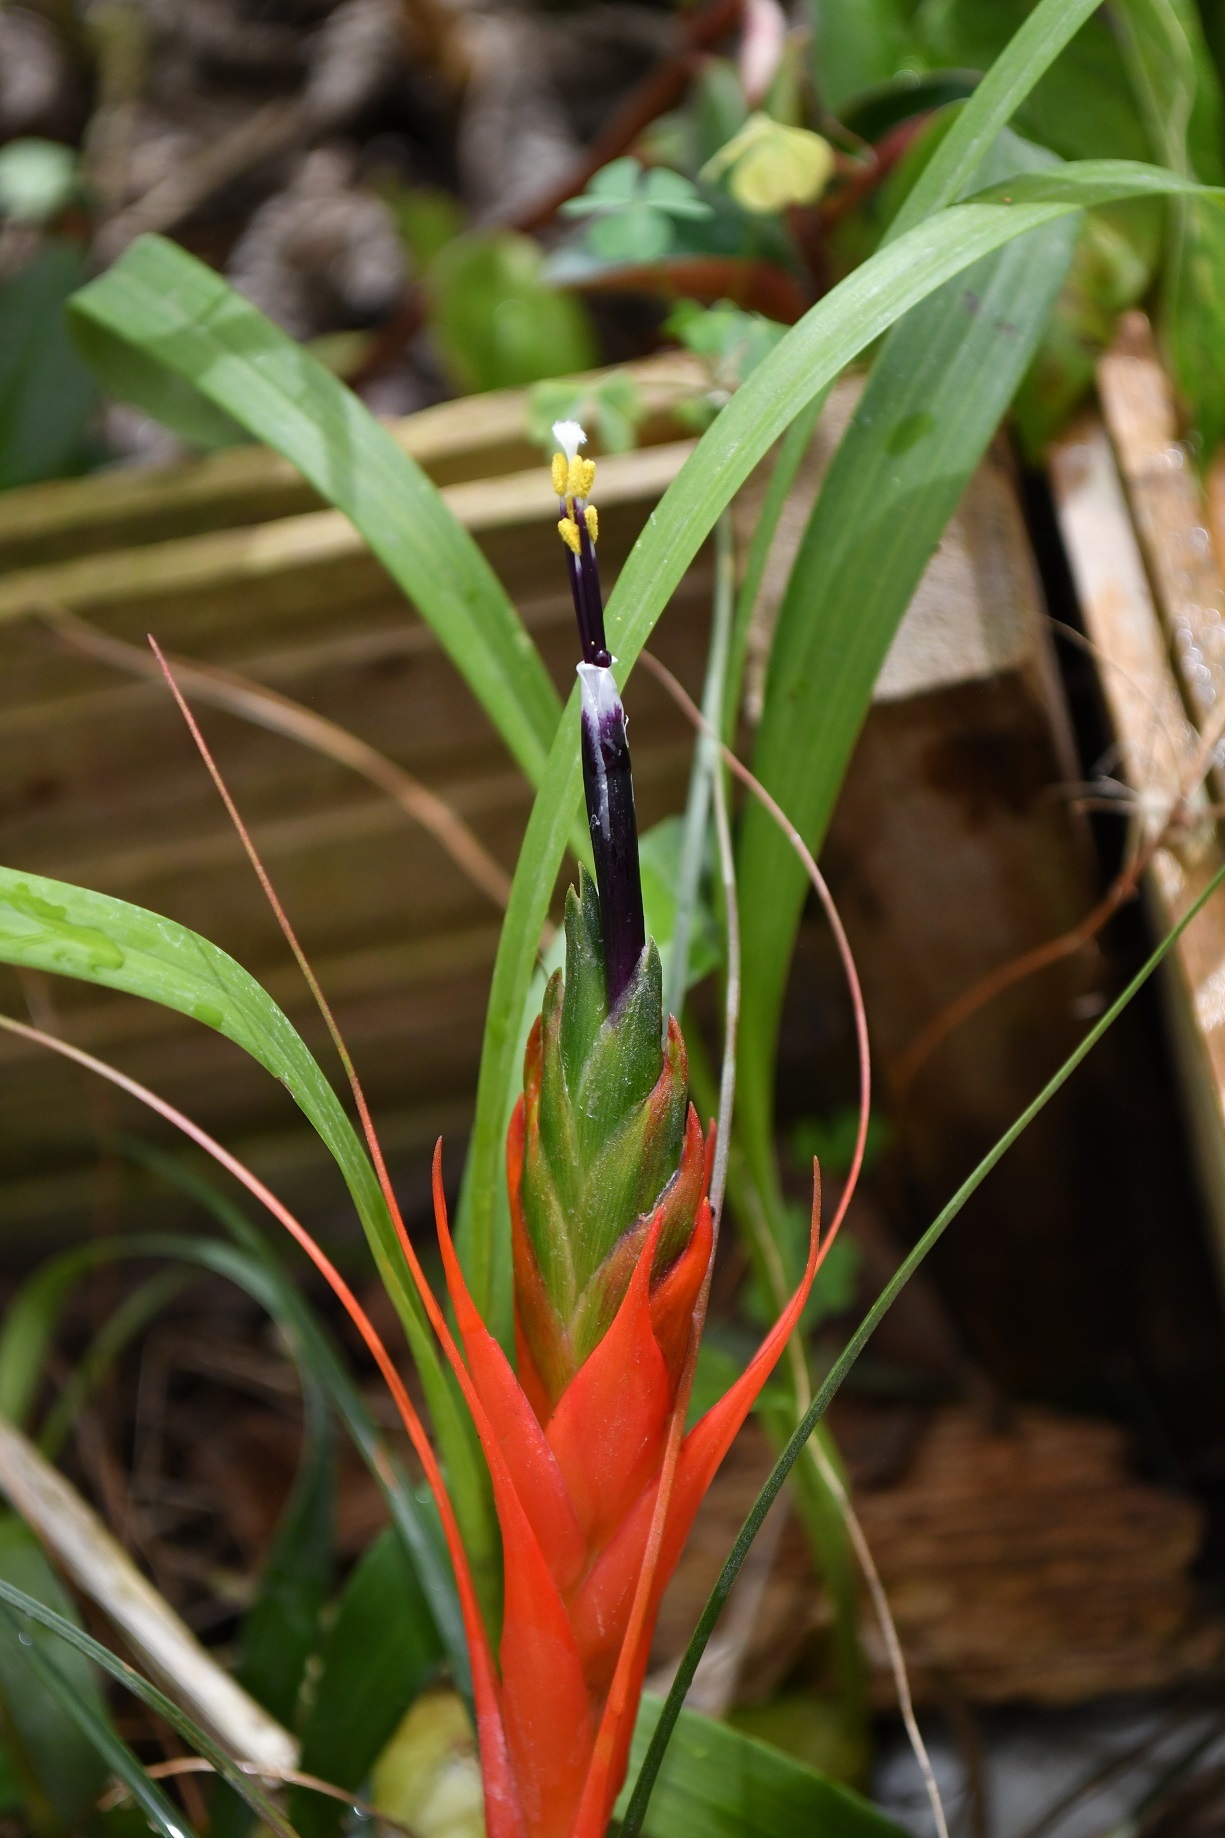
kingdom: Plantae
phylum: Tracheophyta
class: Liliopsida
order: Poales
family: Bromeliaceae
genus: Tillandsia
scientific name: Tillandsia punctulata
